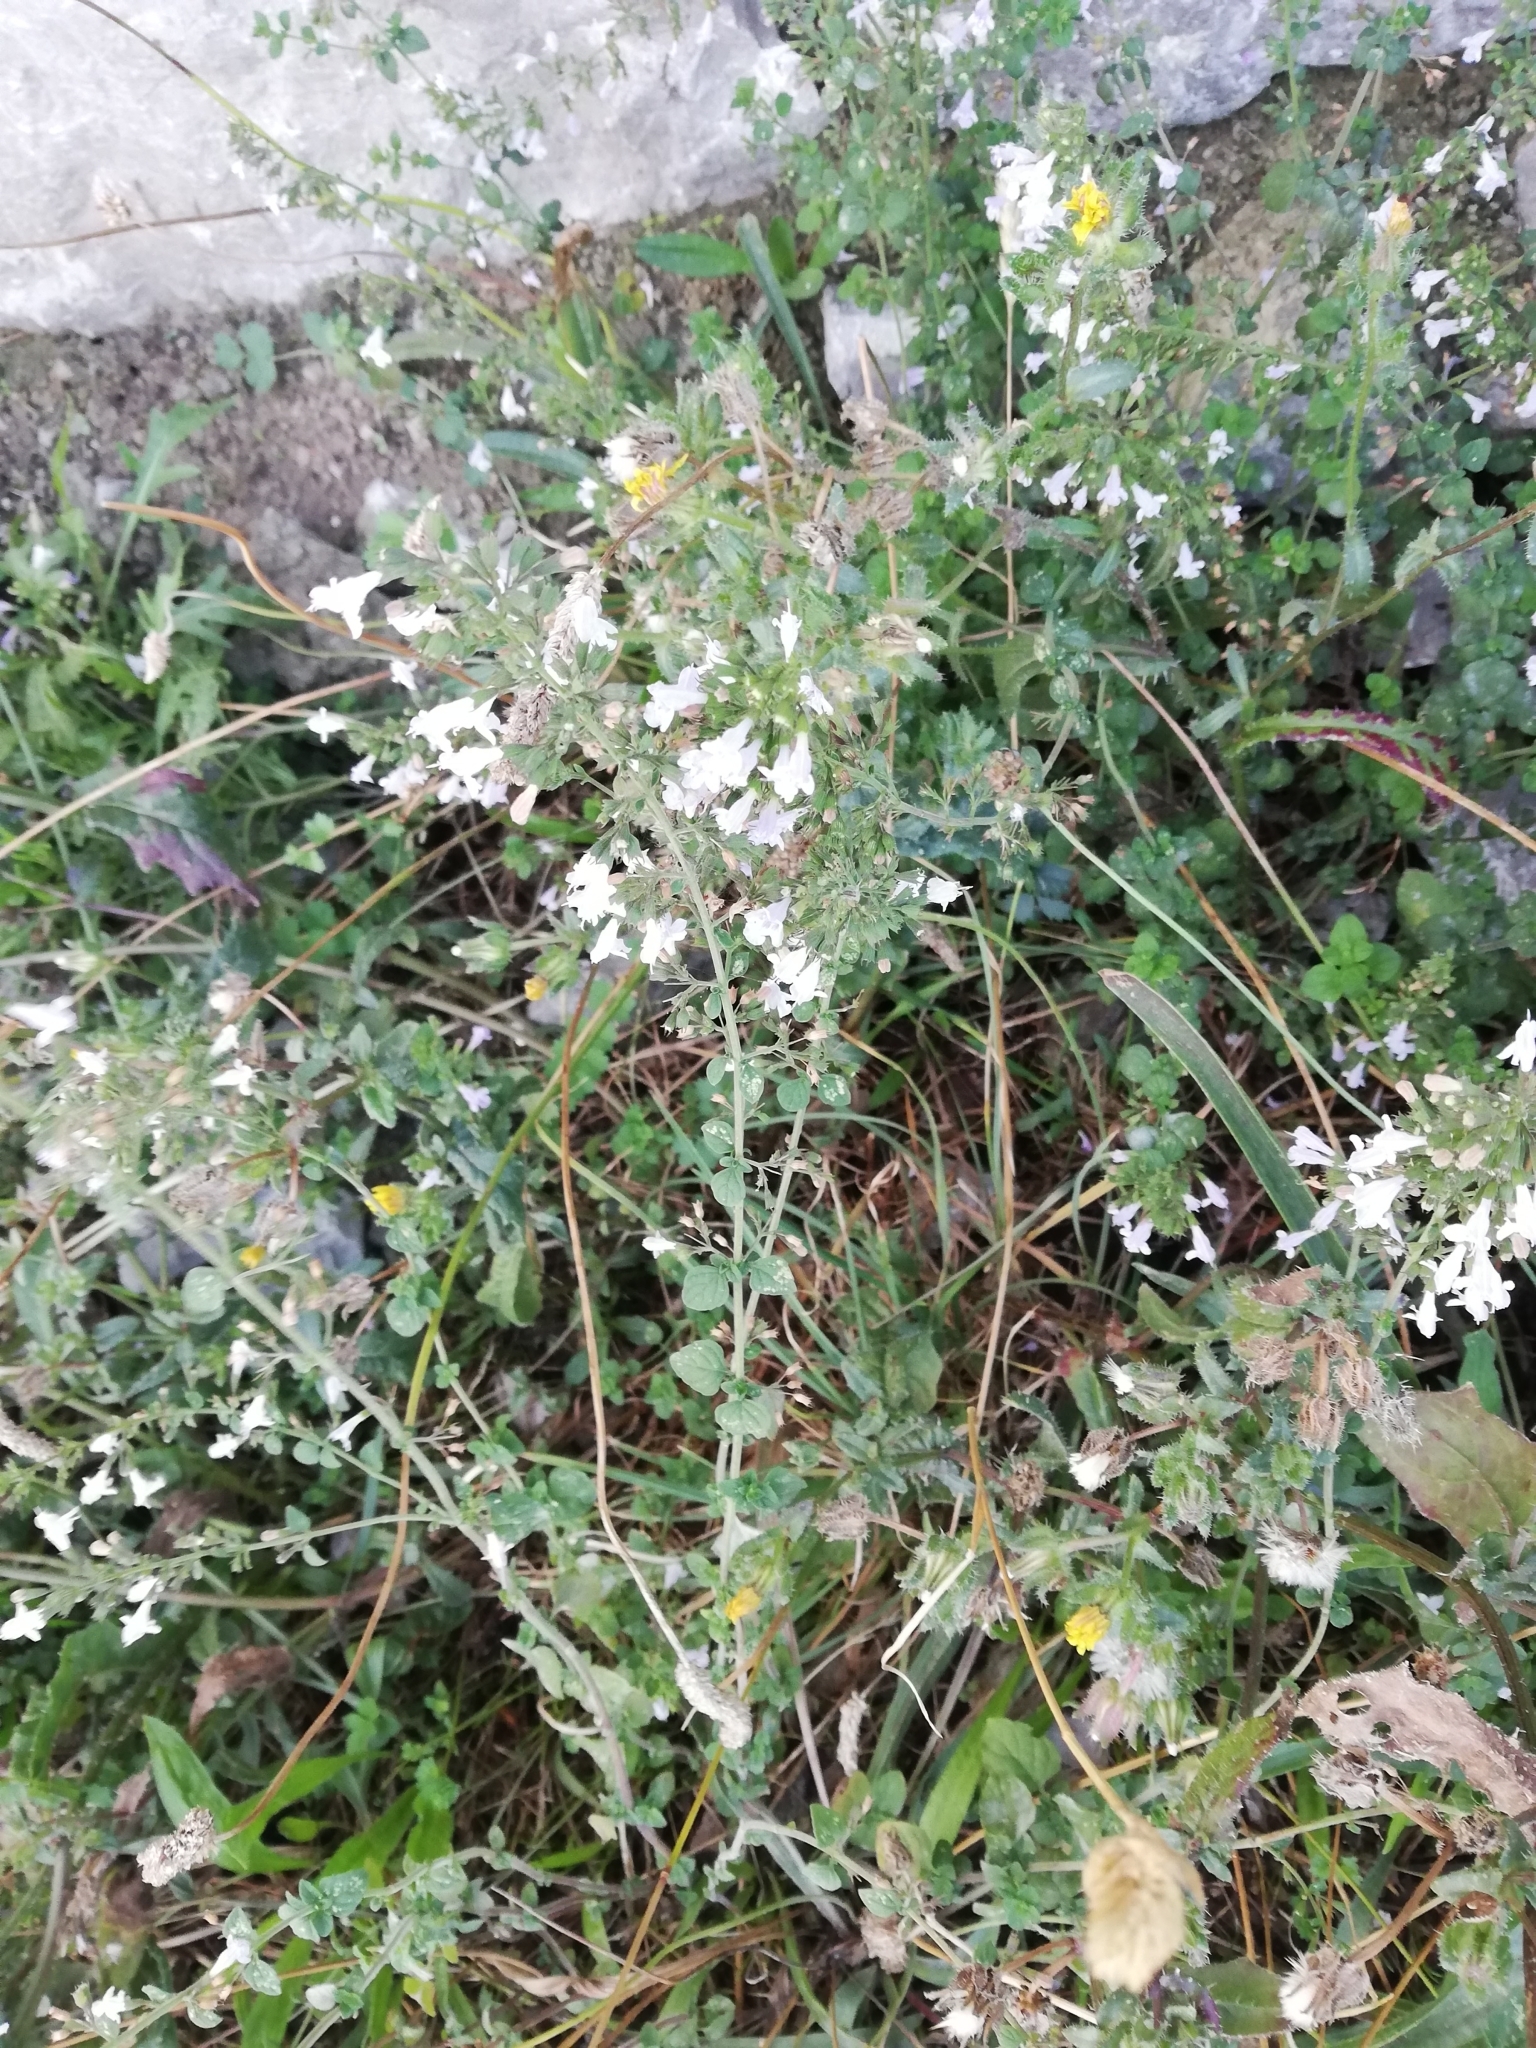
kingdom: Plantae
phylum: Tracheophyta
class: Magnoliopsida
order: Lamiales
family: Lamiaceae
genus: Clinopodium
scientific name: Clinopodium nepeta
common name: Lesser calamint
